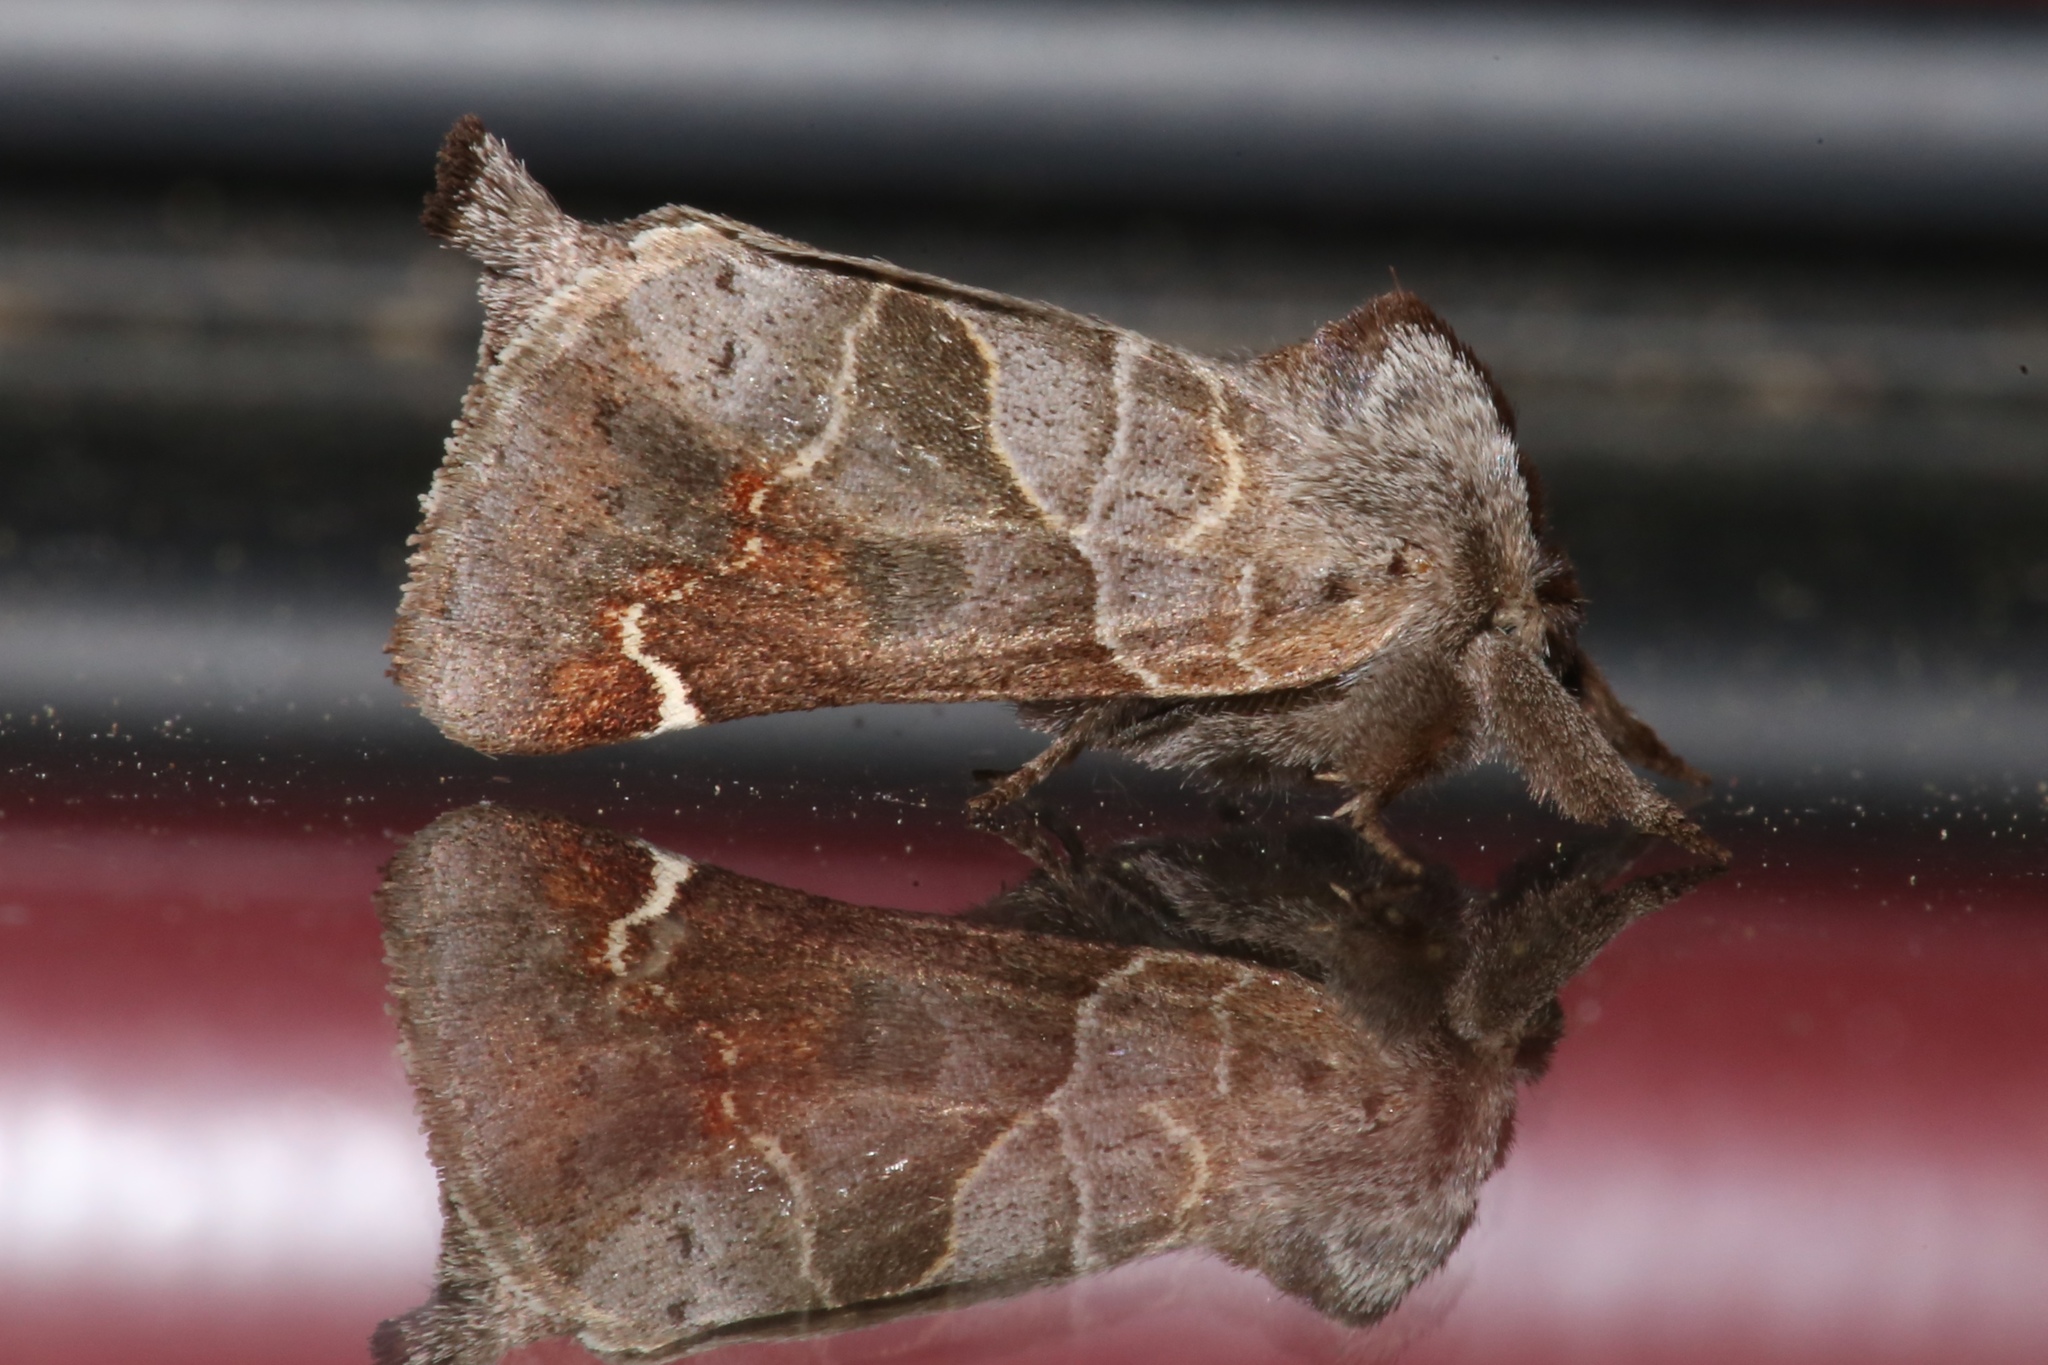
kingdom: Animalia
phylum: Arthropoda
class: Insecta
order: Lepidoptera
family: Notodontidae
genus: Clostera
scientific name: Clostera apicalis
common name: Apical prominent
